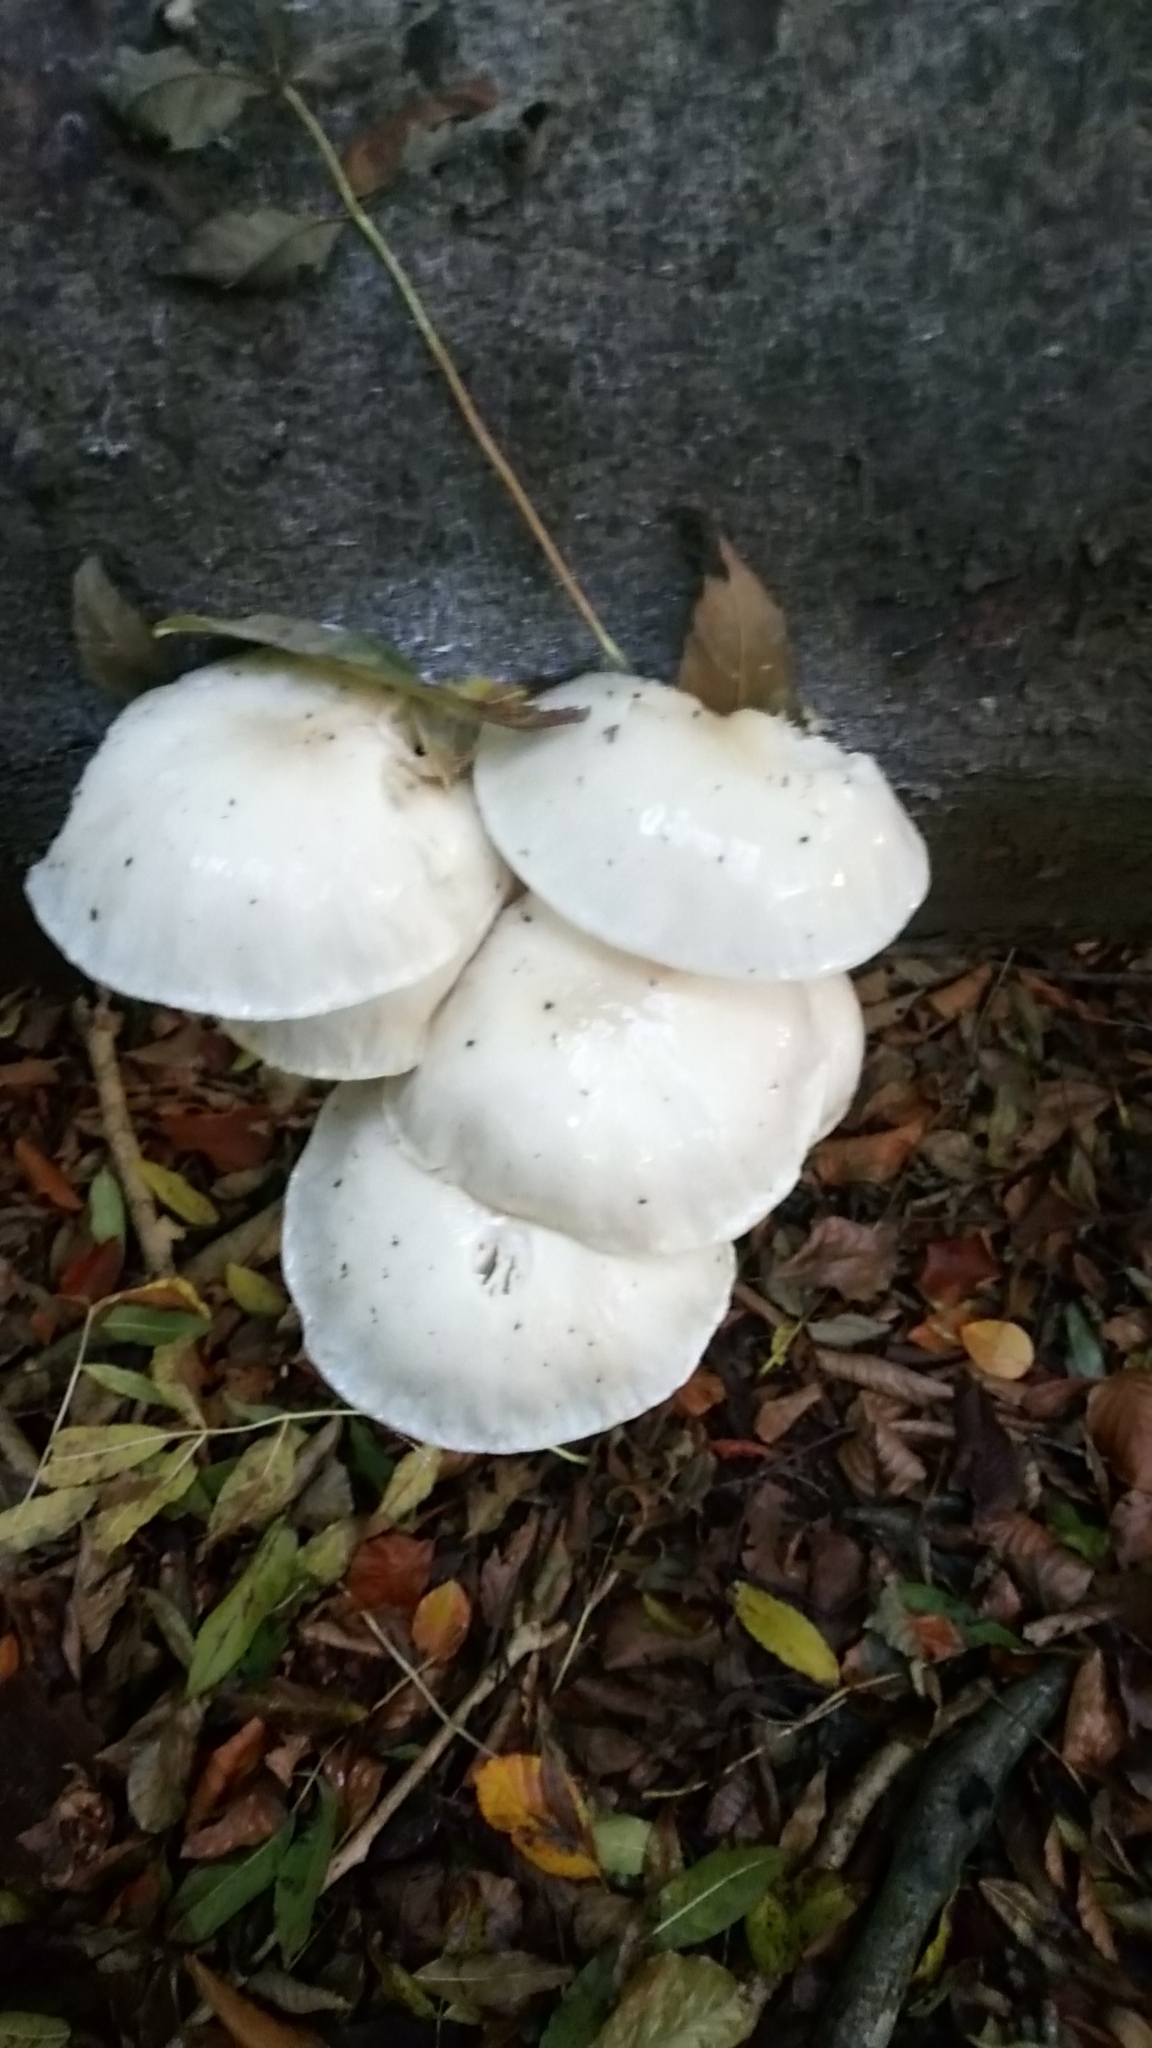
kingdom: Fungi
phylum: Basidiomycota
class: Agaricomycetes
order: Agaricales
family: Physalacriaceae
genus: Mucidula
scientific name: Mucidula mucida
